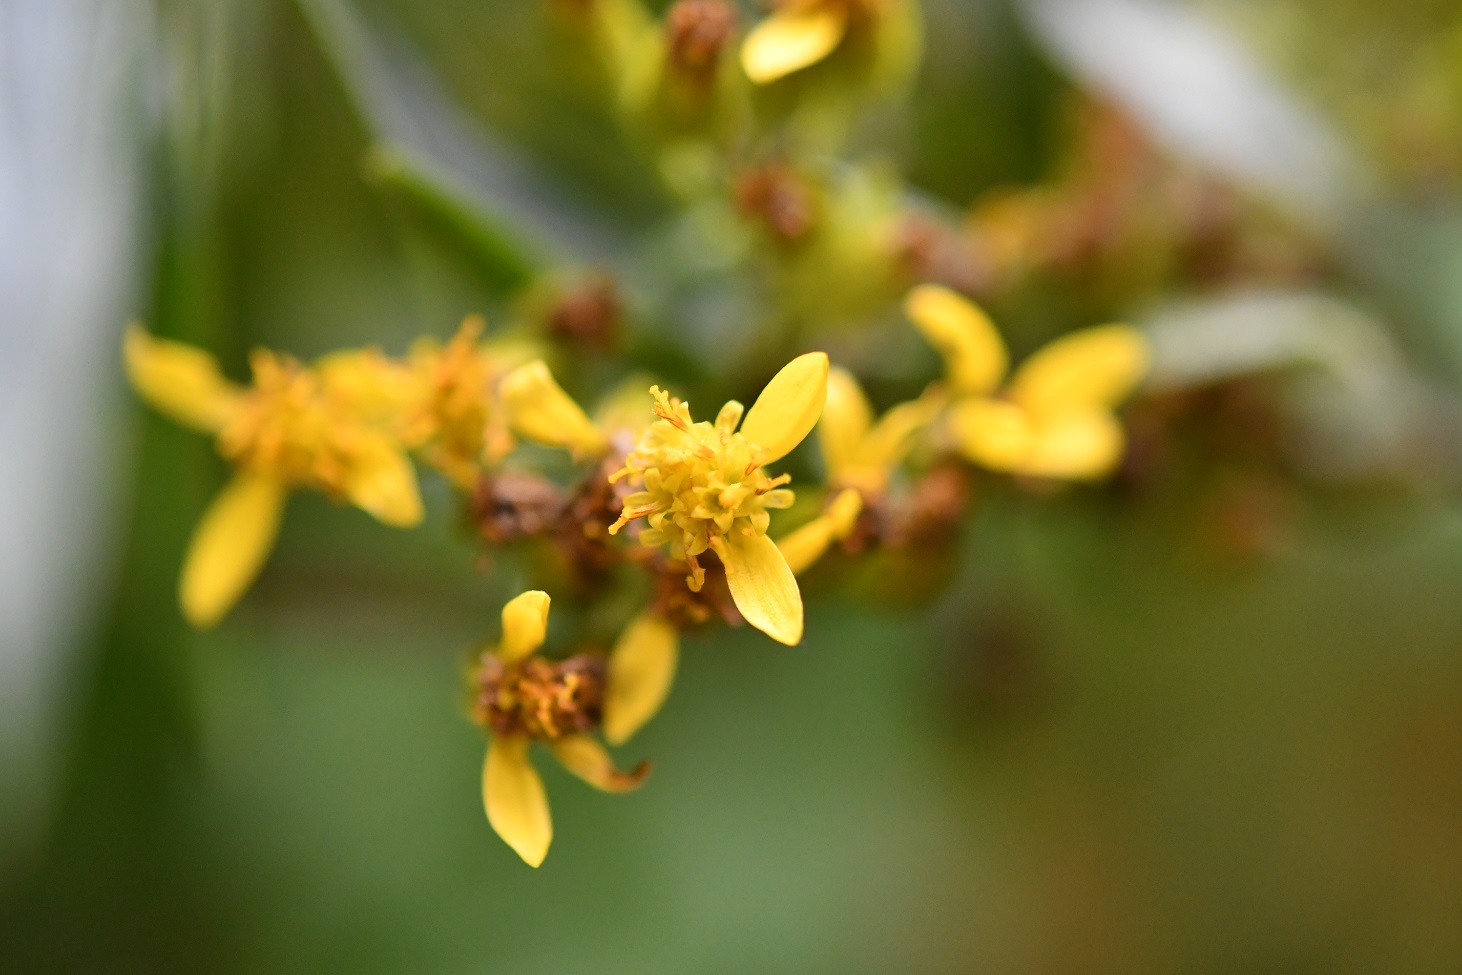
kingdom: Plantae
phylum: Tracheophyta
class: Magnoliopsida
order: Asterales
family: Asteraceae
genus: Barkleyanthus
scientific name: Barkleyanthus salicifolius
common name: Willow ragwort
